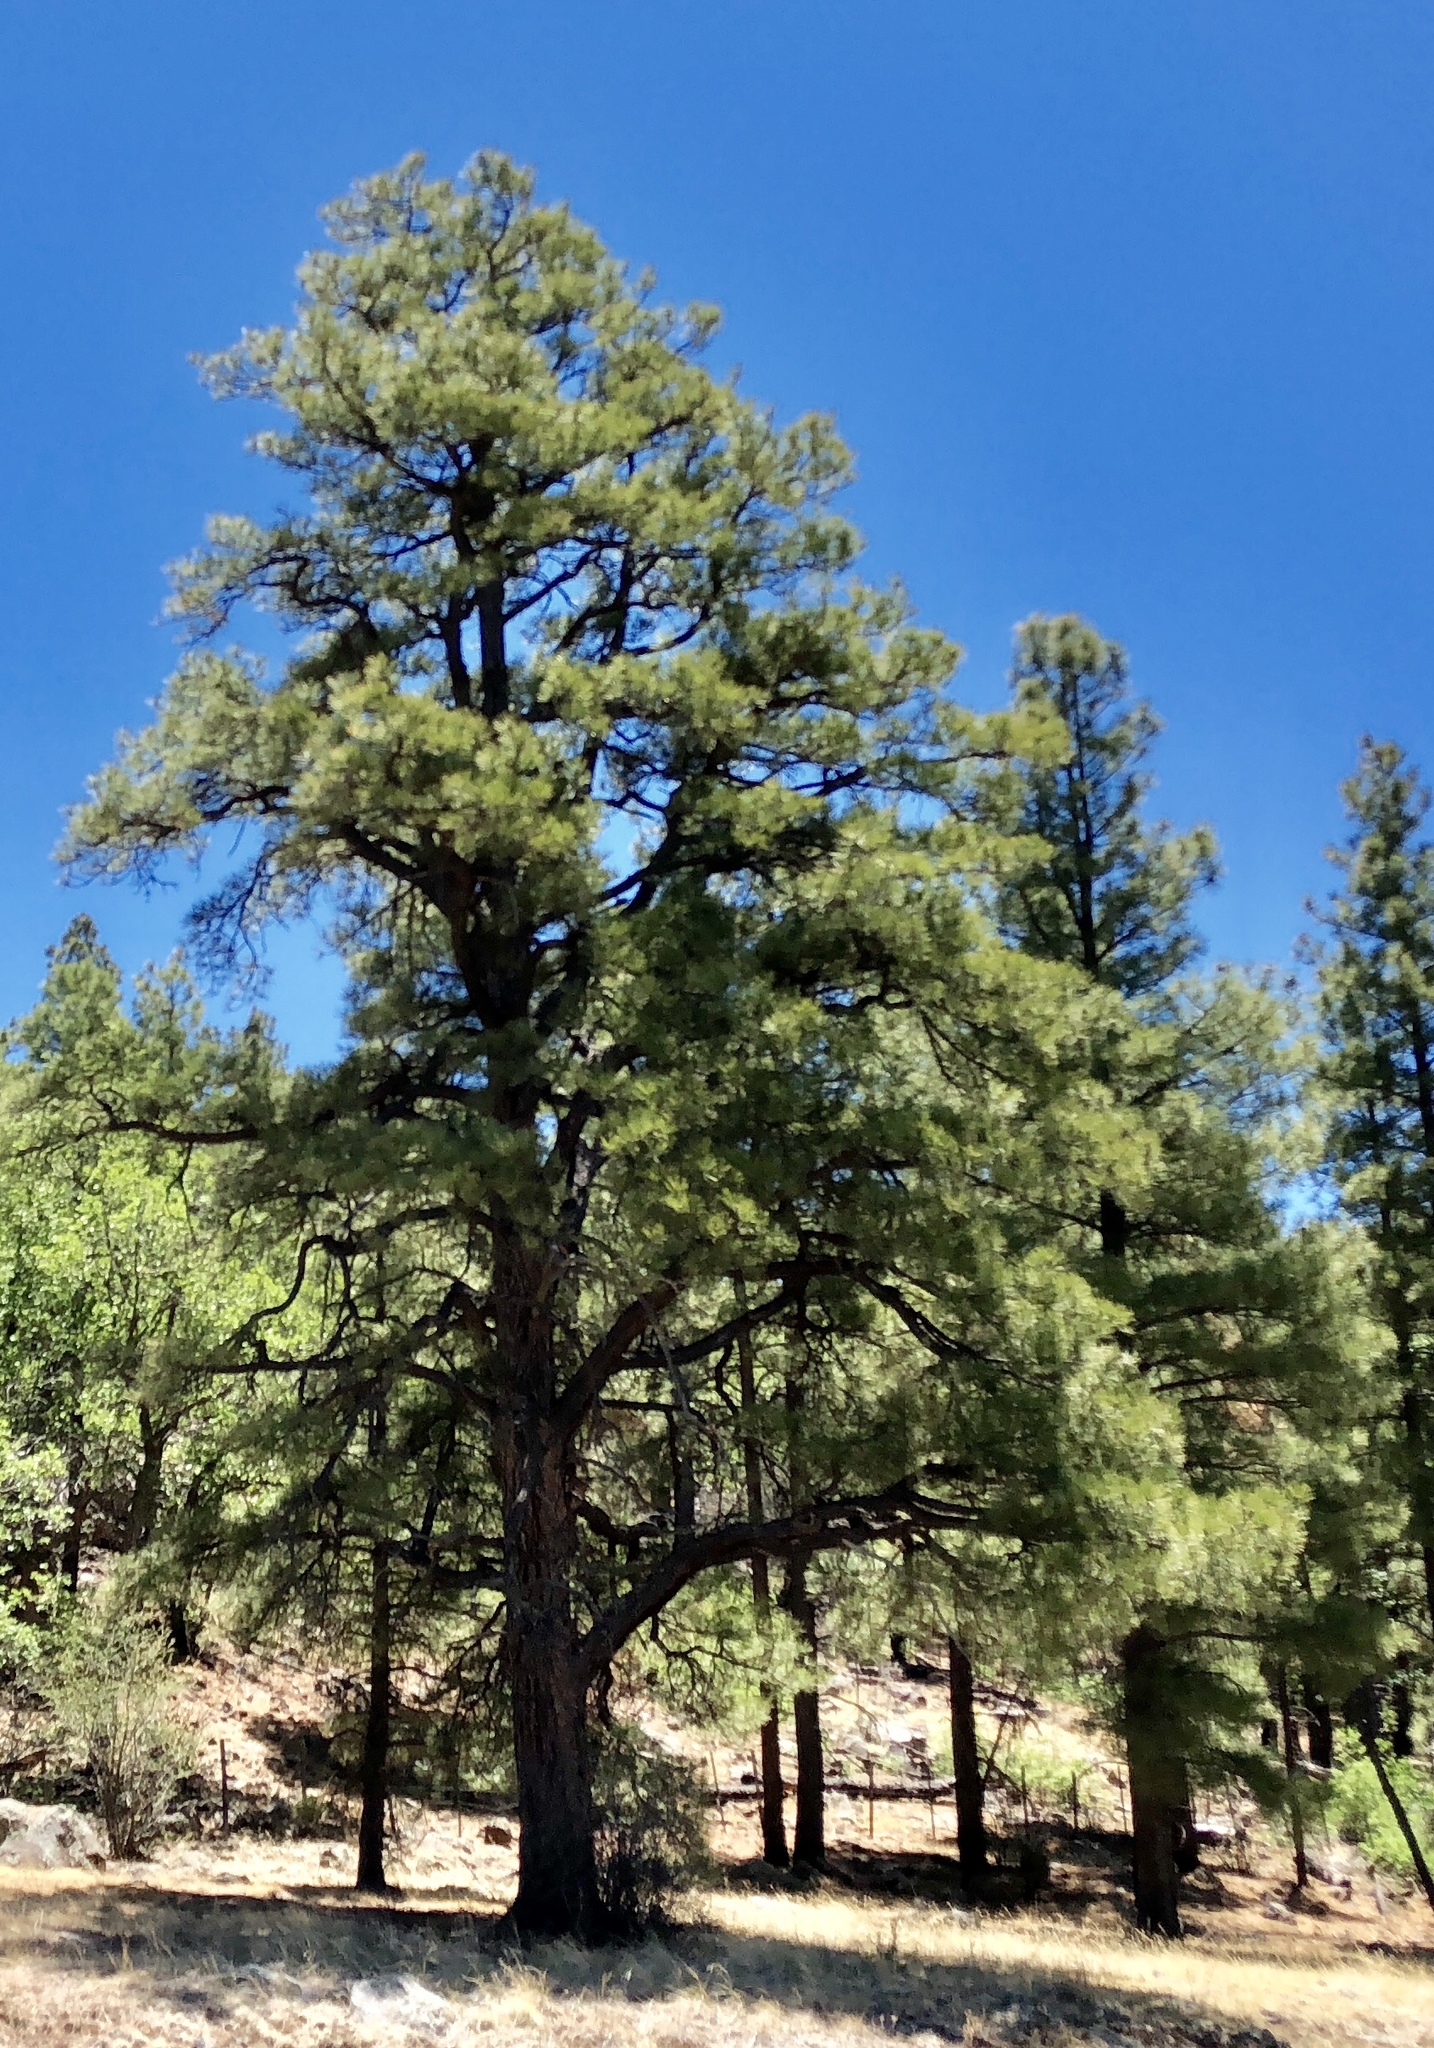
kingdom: Plantae
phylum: Tracheophyta
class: Pinopsida
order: Pinales
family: Pinaceae
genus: Pinus
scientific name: Pinus ponderosa
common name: Western yellow-pine
